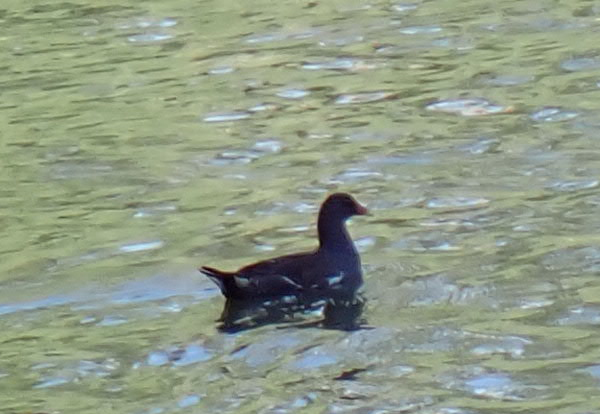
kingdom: Animalia
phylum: Chordata
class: Aves
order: Gruiformes
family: Rallidae
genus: Gallinula
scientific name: Gallinula chloropus
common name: Common moorhen
